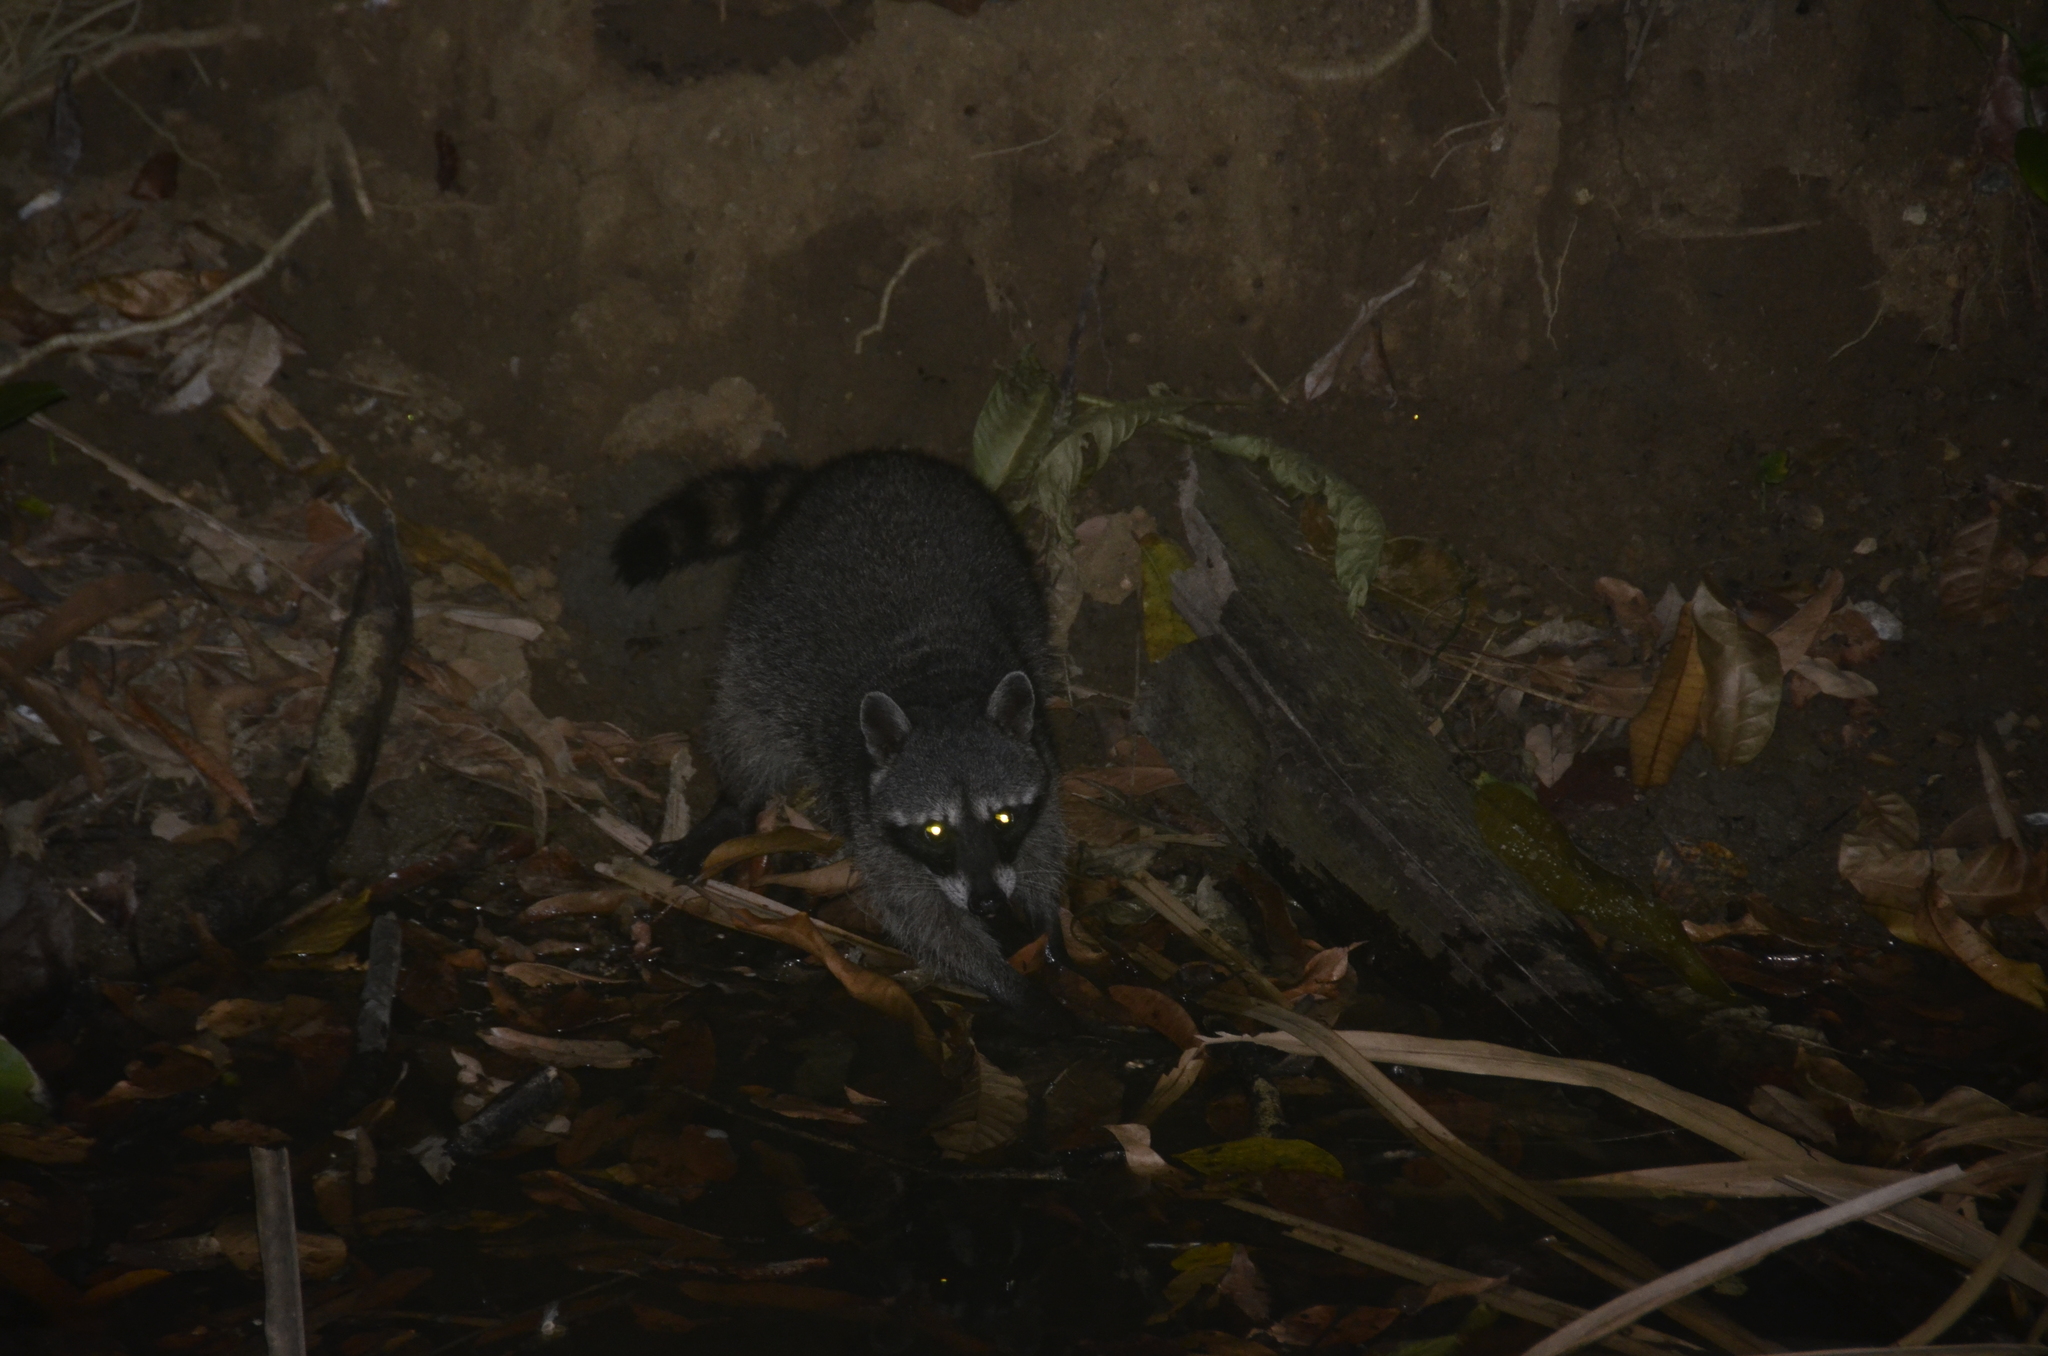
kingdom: Animalia
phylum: Chordata
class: Mammalia
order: Carnivora
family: Procyonidae
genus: Procyon
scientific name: Procyon lotor
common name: Raccoon
